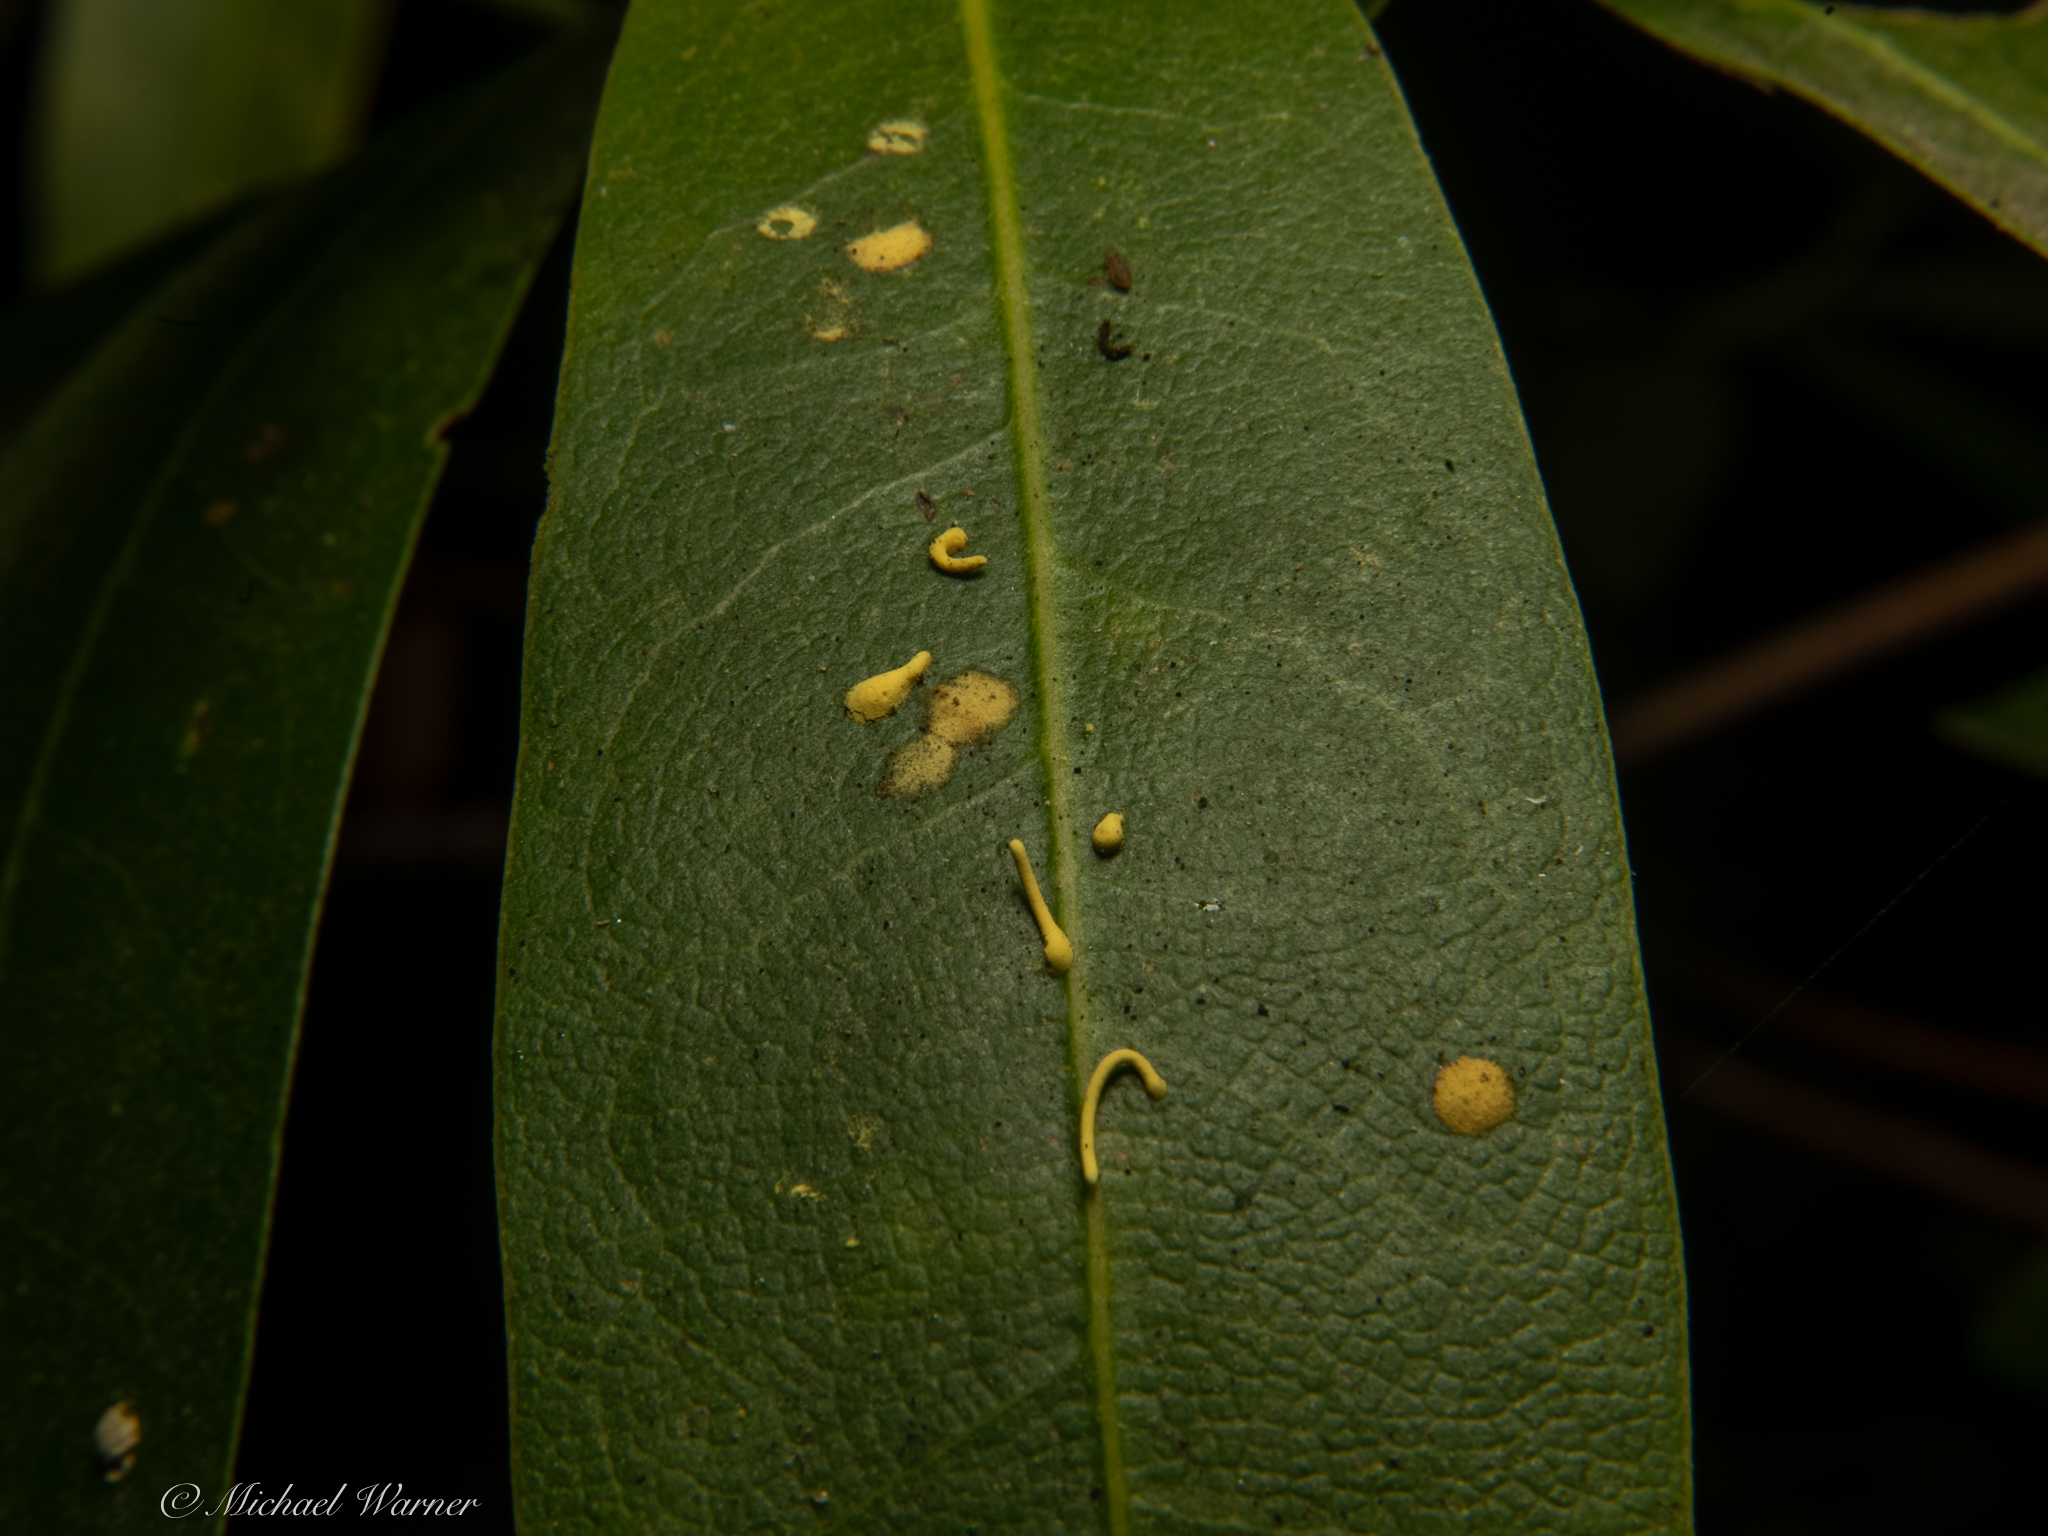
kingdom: Plantae
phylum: Tracheophyta
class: Magnoliopsida
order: Laurales
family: Lauraceae
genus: Umbellularia
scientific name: Umbellularia californica
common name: California bay
